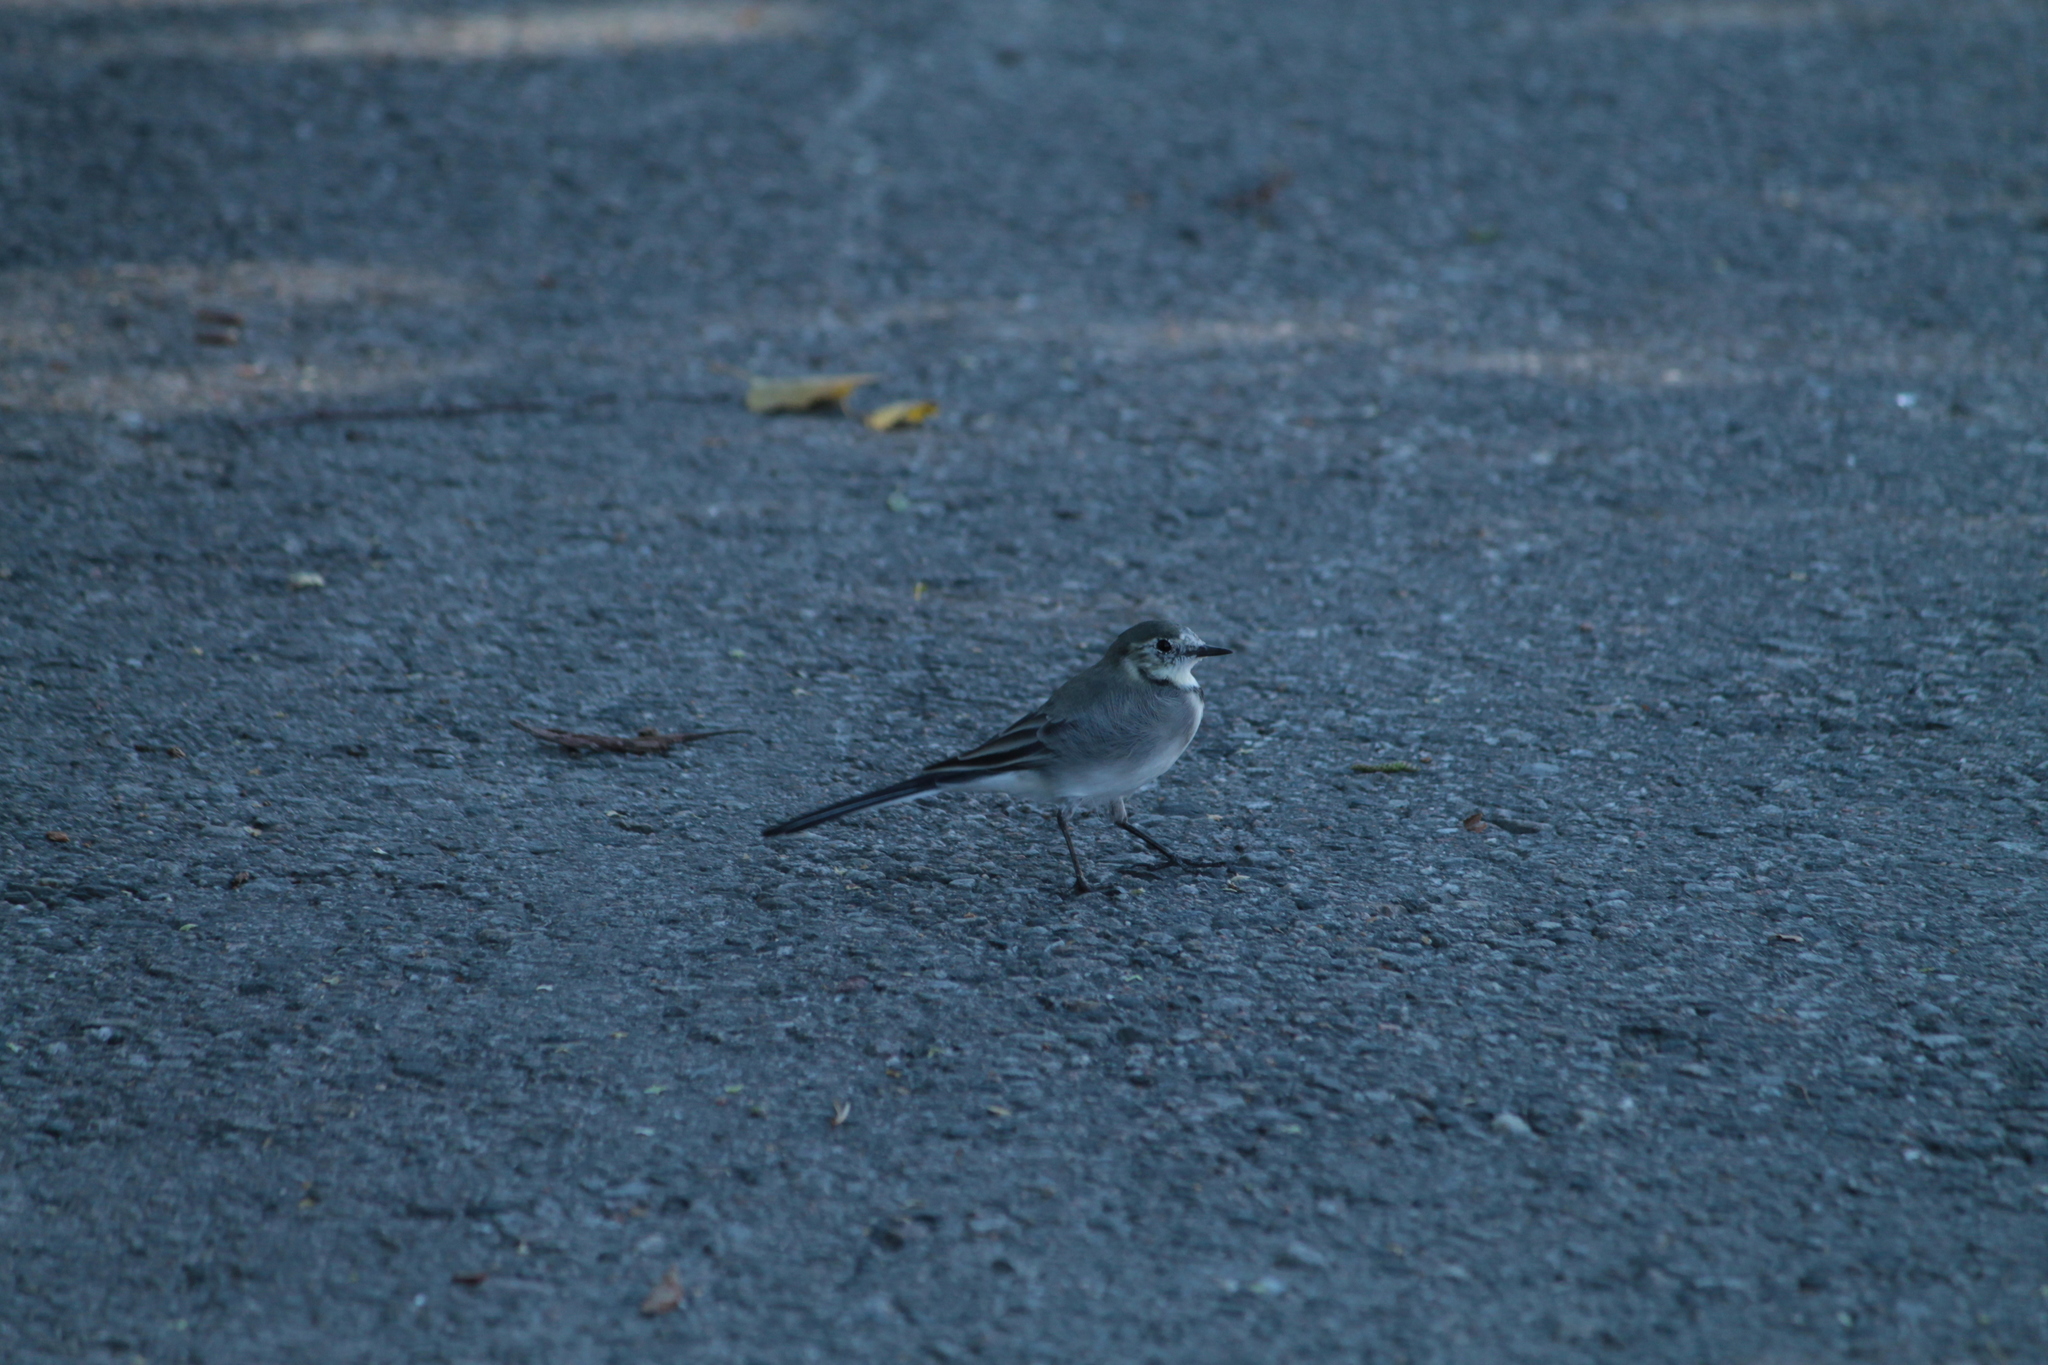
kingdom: Animalia
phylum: Chordata
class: Aves
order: Passeriformes
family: Motacillidae
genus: Motacilla
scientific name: Motacilla alba
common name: White wagtail
